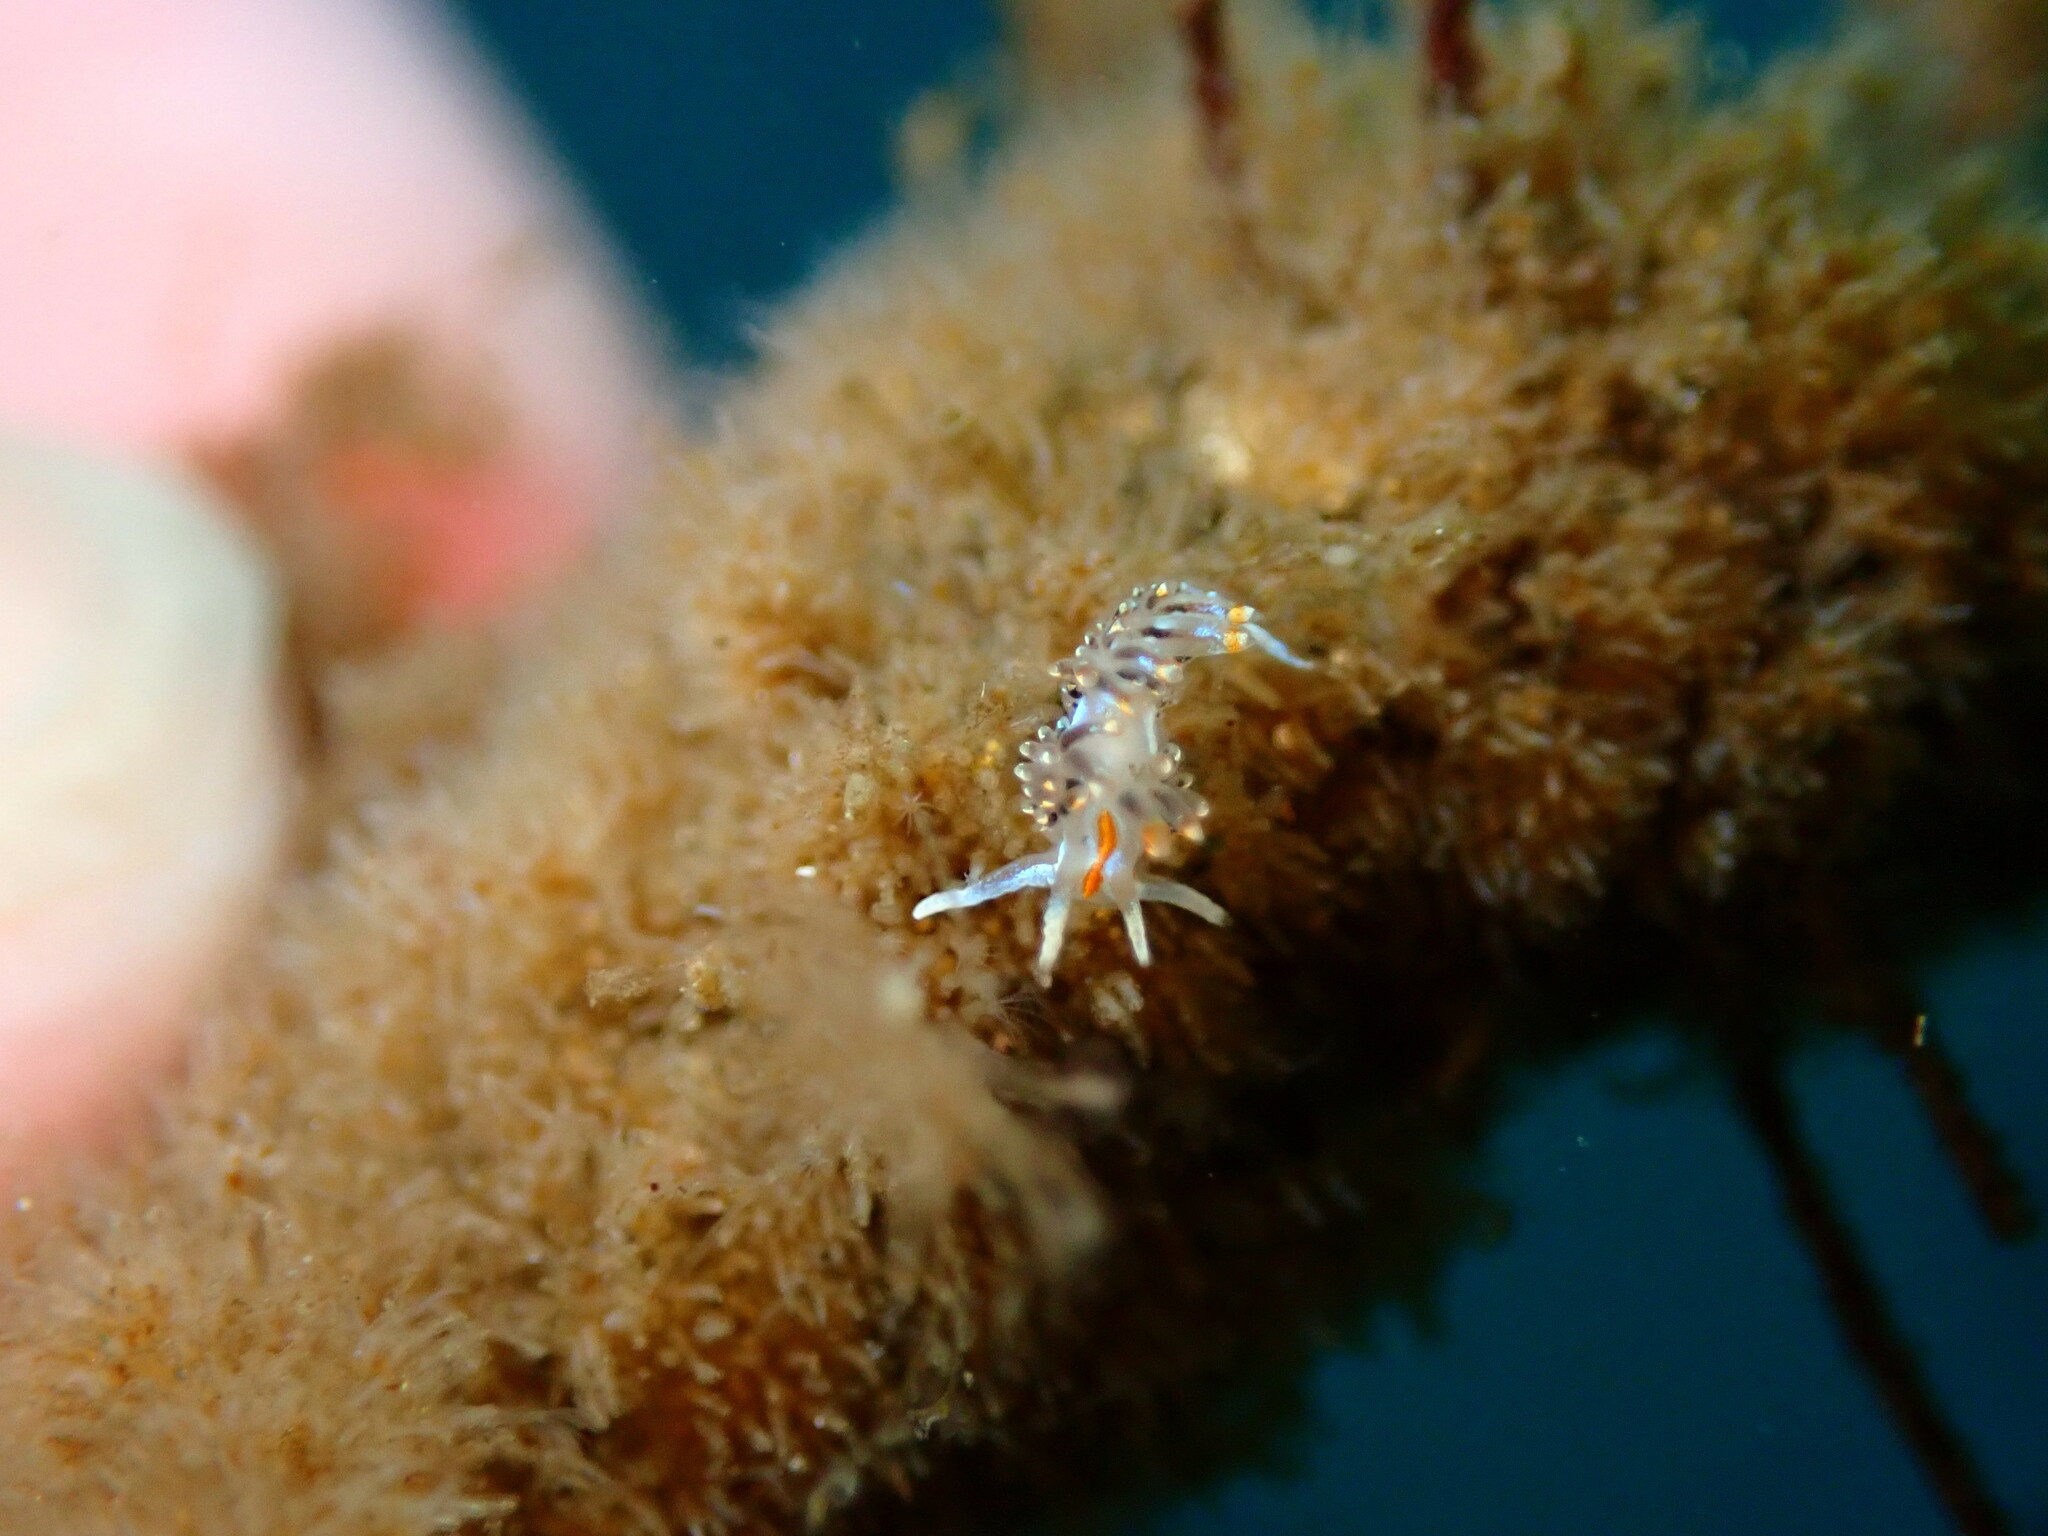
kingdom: Animalia
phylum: Mollusca
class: Gastropoda
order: Nudibranchia
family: Myrrhinidae
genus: Hermissenda
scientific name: Hermissenda opalescens
